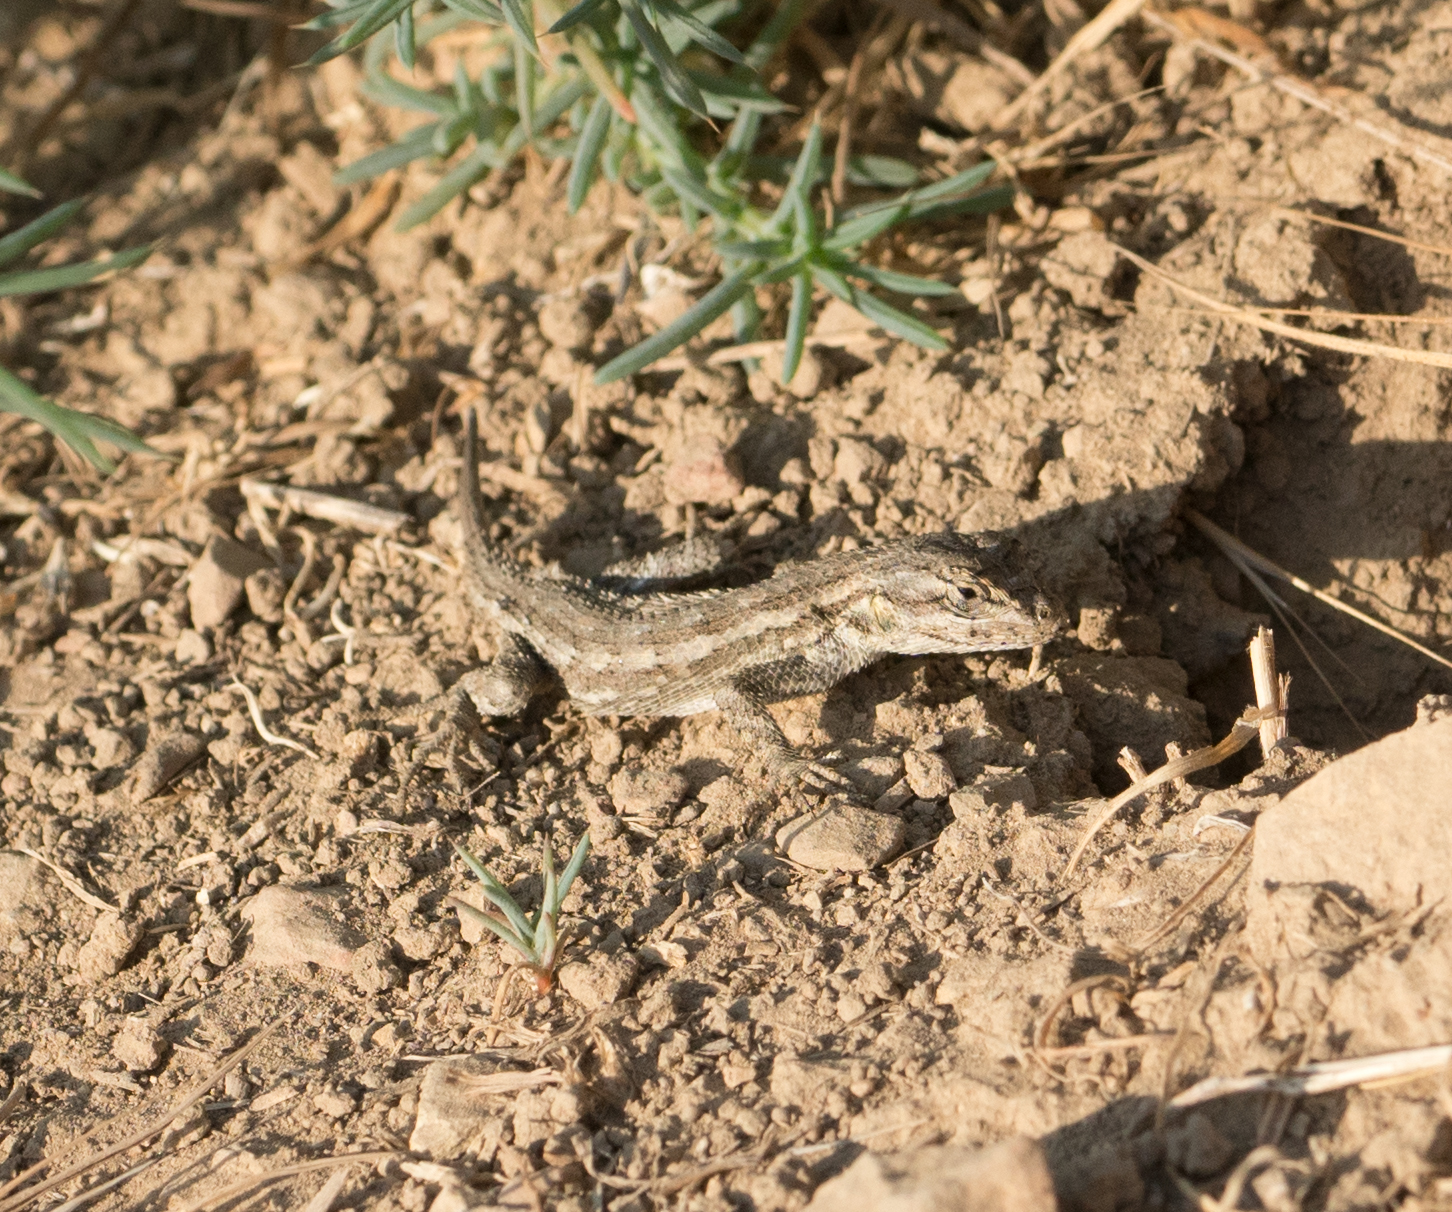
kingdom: Animalia
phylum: Chordata
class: Squamata
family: Phrynosomatidae
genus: Sceloporus
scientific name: Sceloporus occidentalis
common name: Western fence lizard
